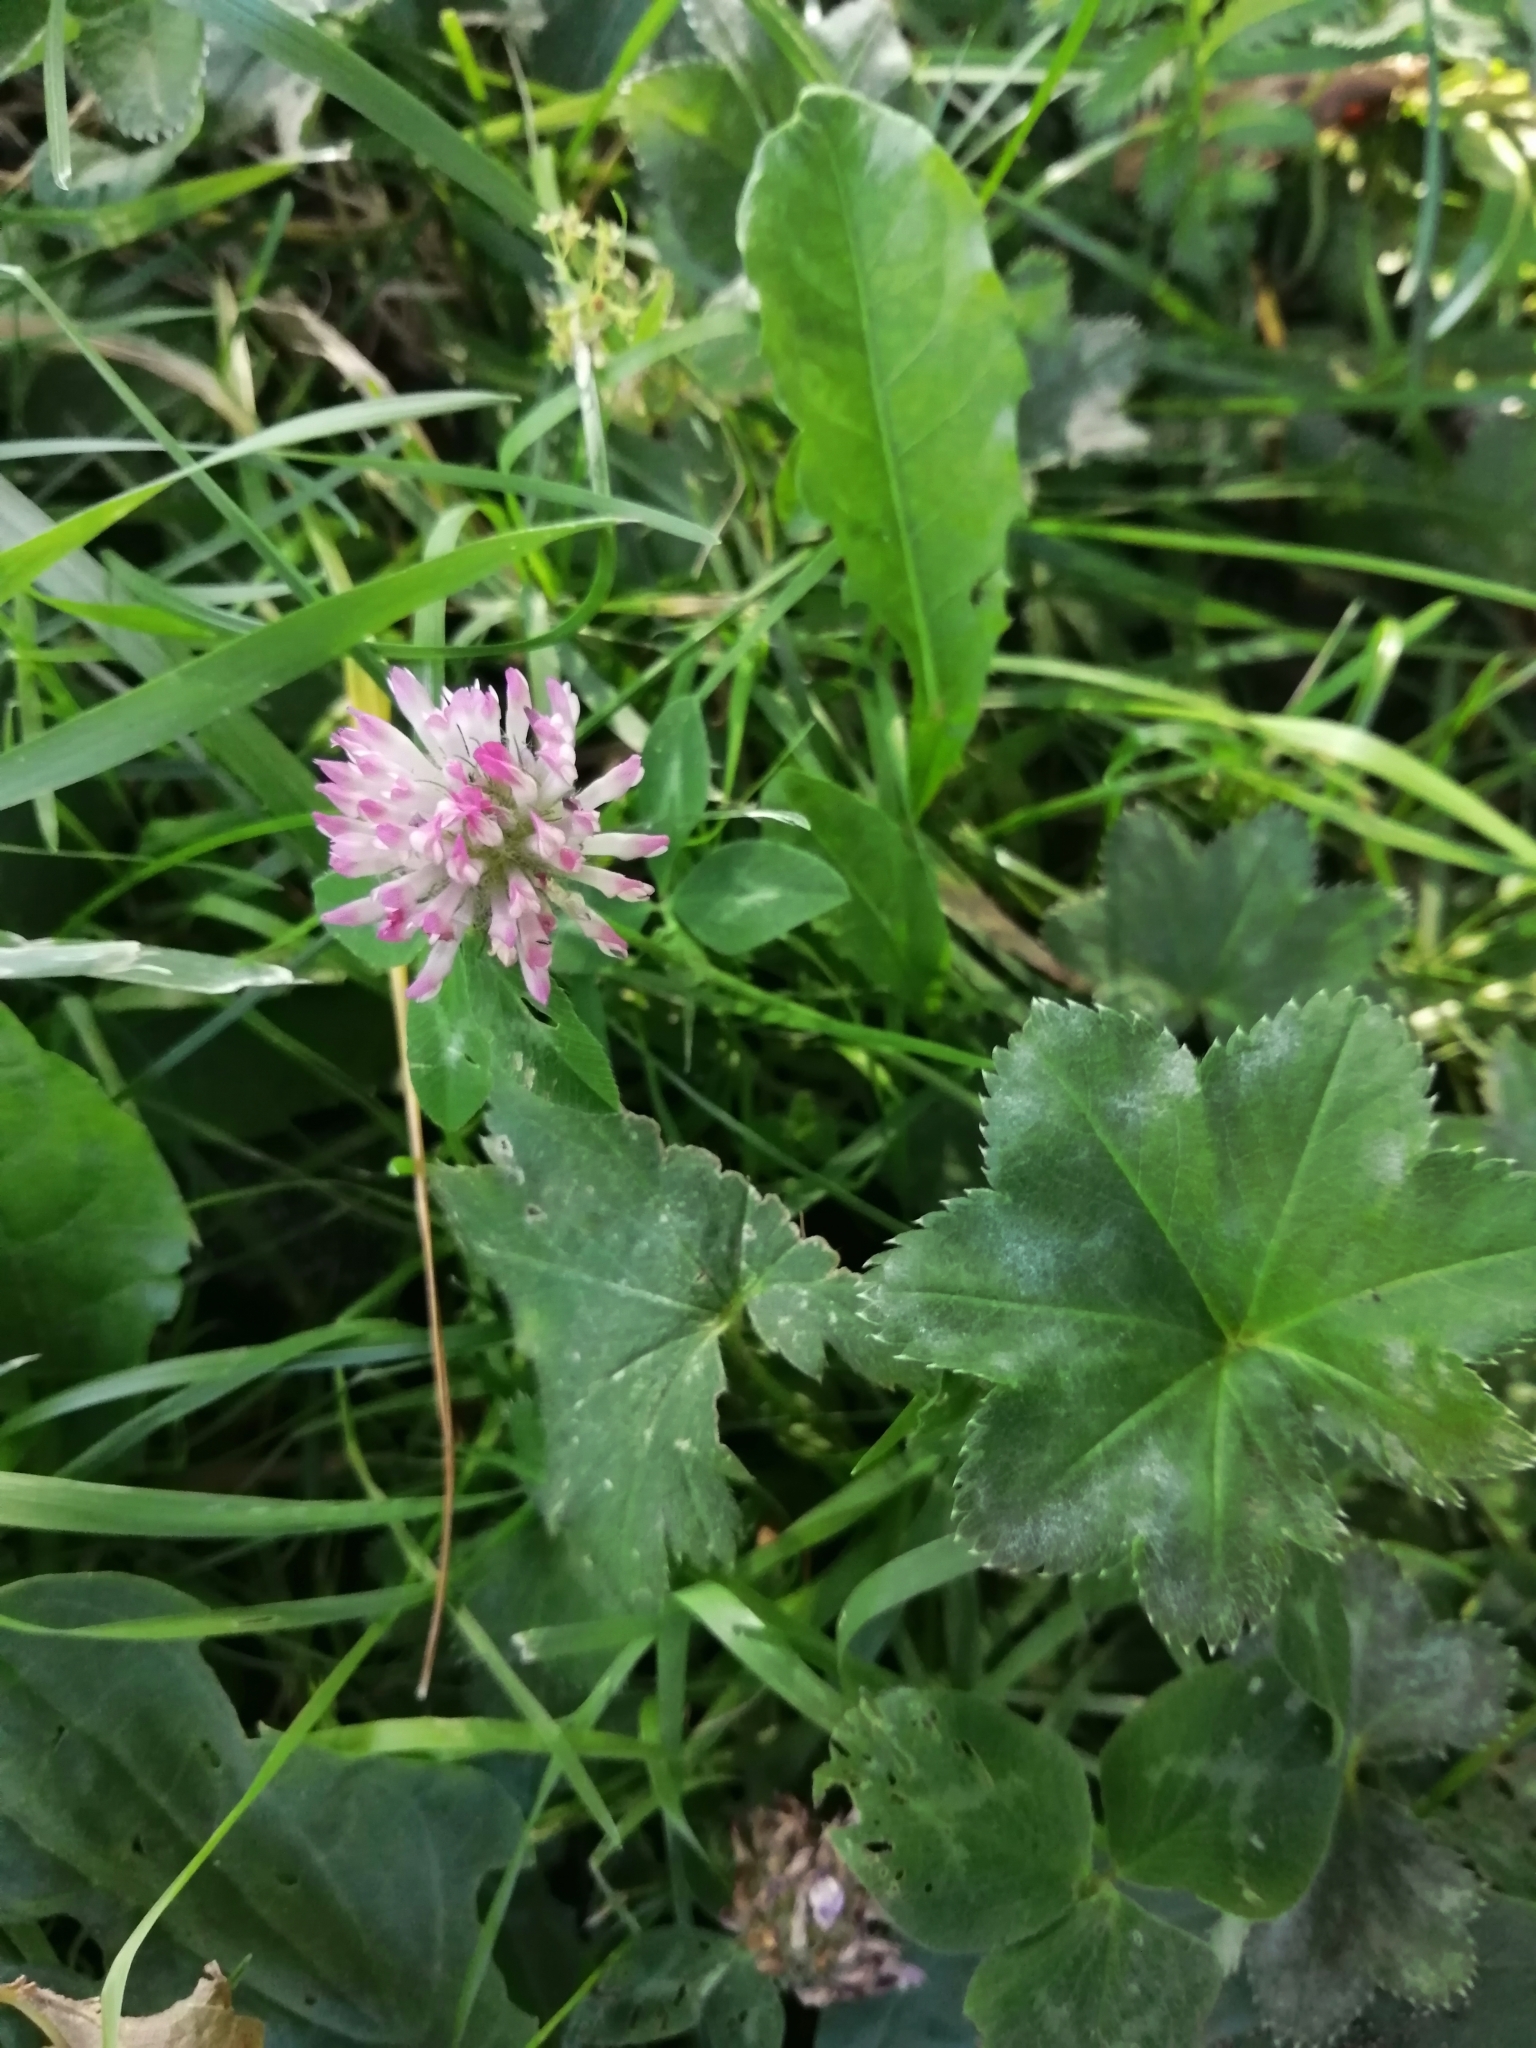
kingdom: Plantae
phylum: Tracheophyta
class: Magnoliopsida
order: Fabales
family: Fabaceae
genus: Trifolium
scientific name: Trifolium pratense
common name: Red clover
